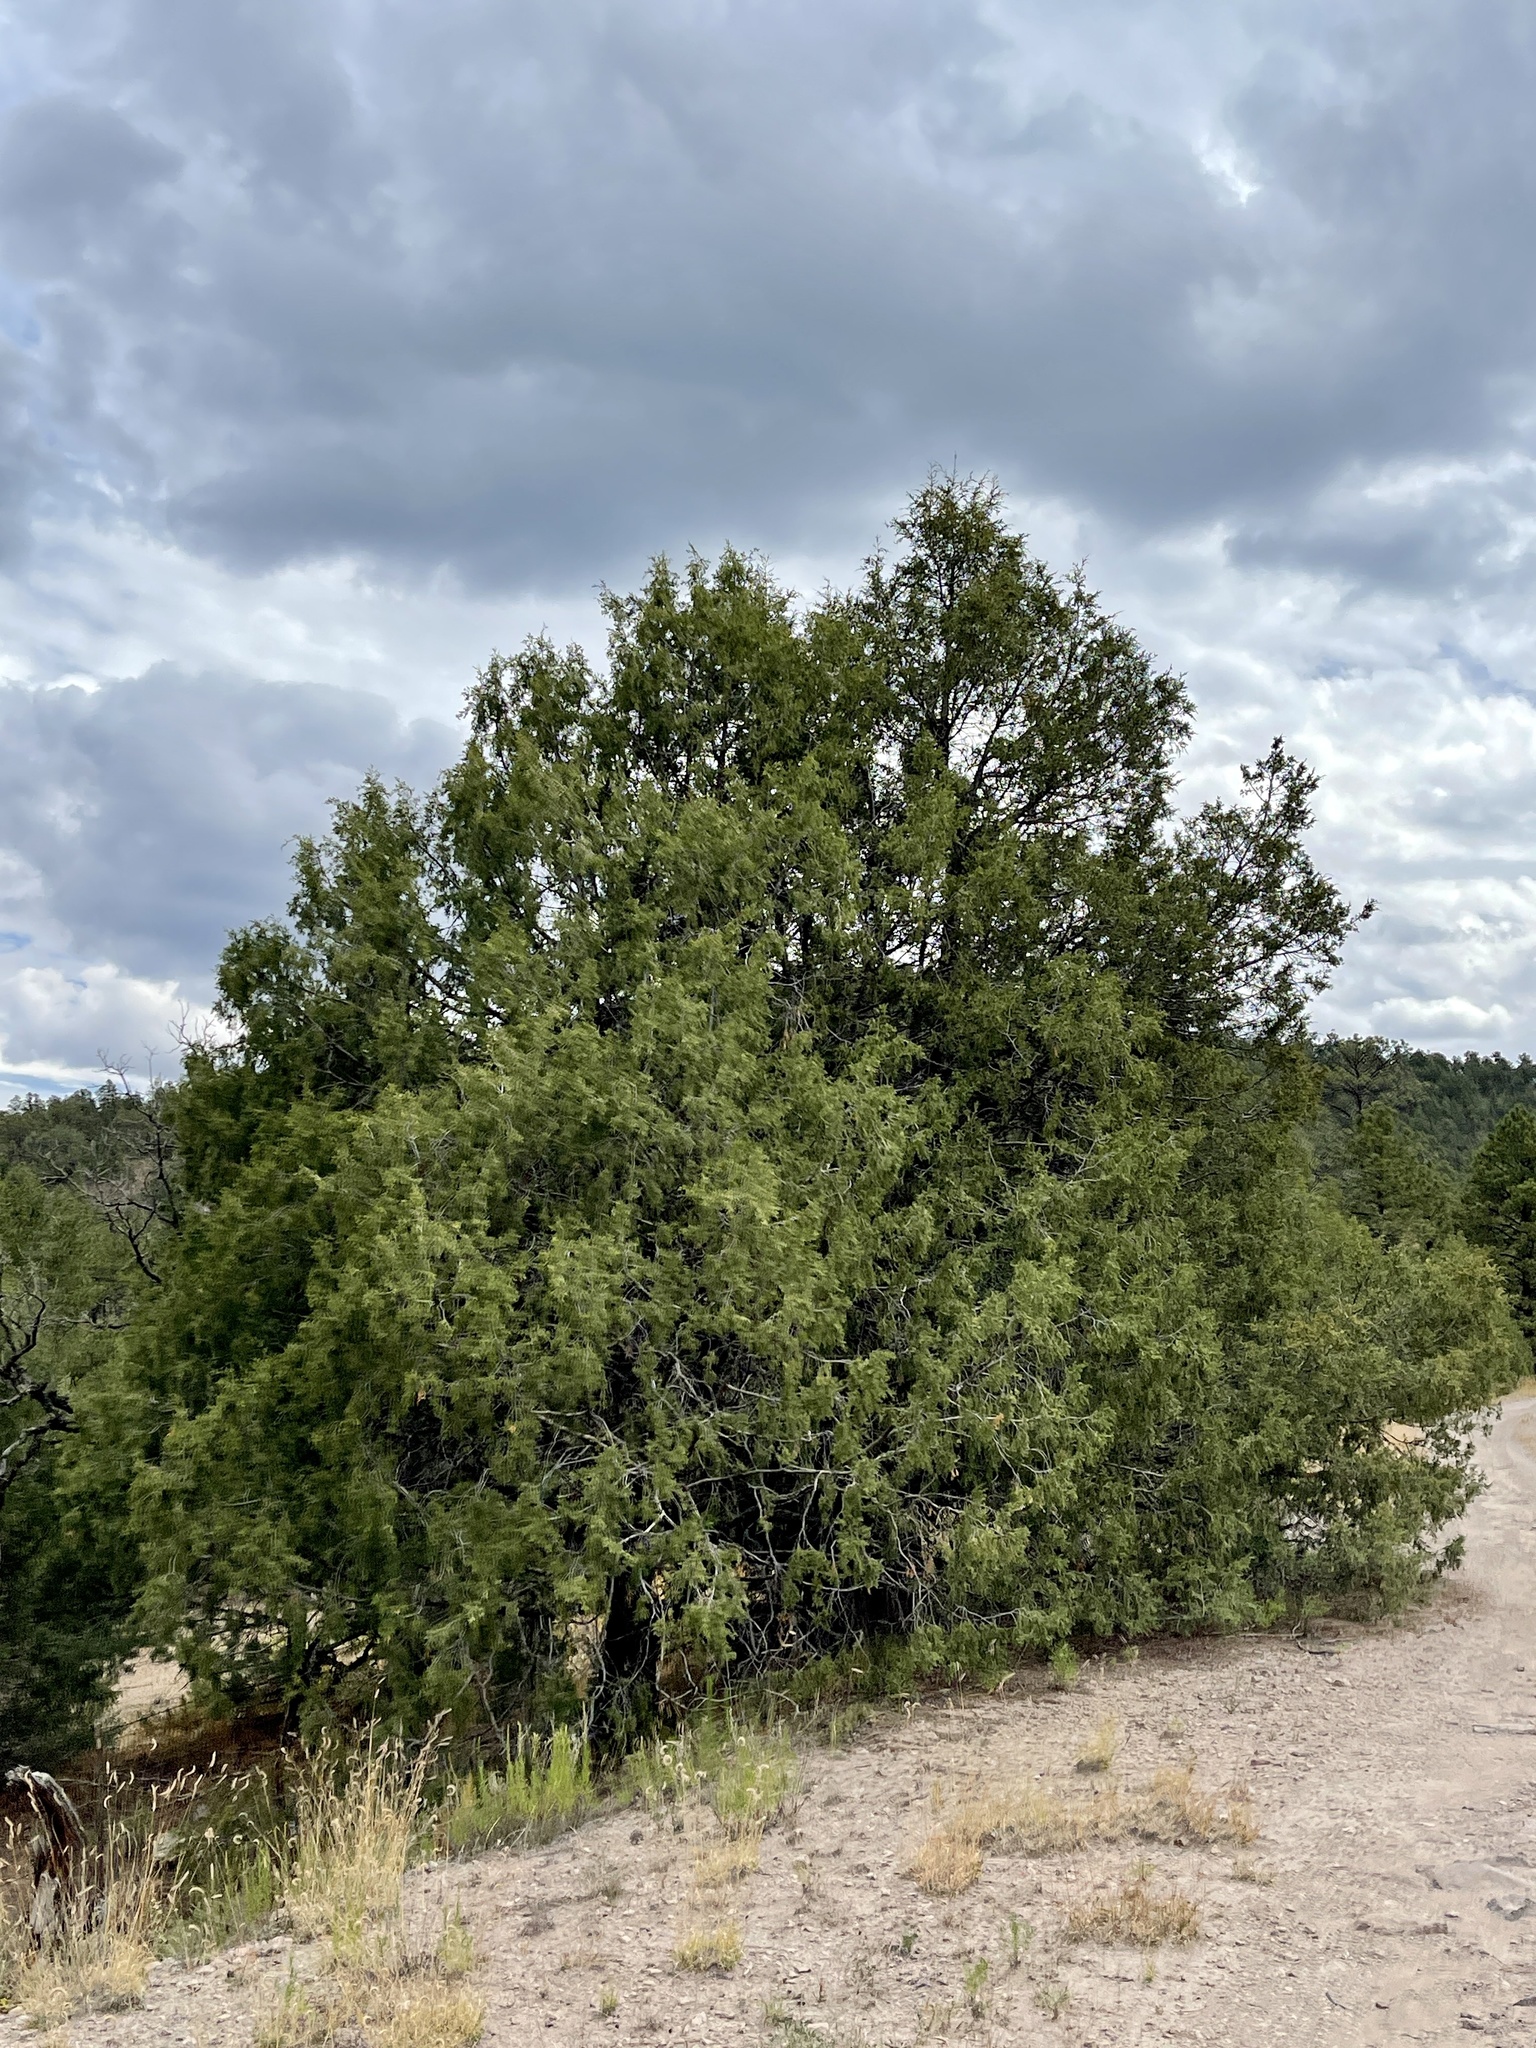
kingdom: Plantae
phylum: Tracheophyta
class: Pinopsida
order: Pinales
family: Cupressaceae
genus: Juniperus
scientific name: Juniperus scopulorum
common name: Rocky mountain juniper
